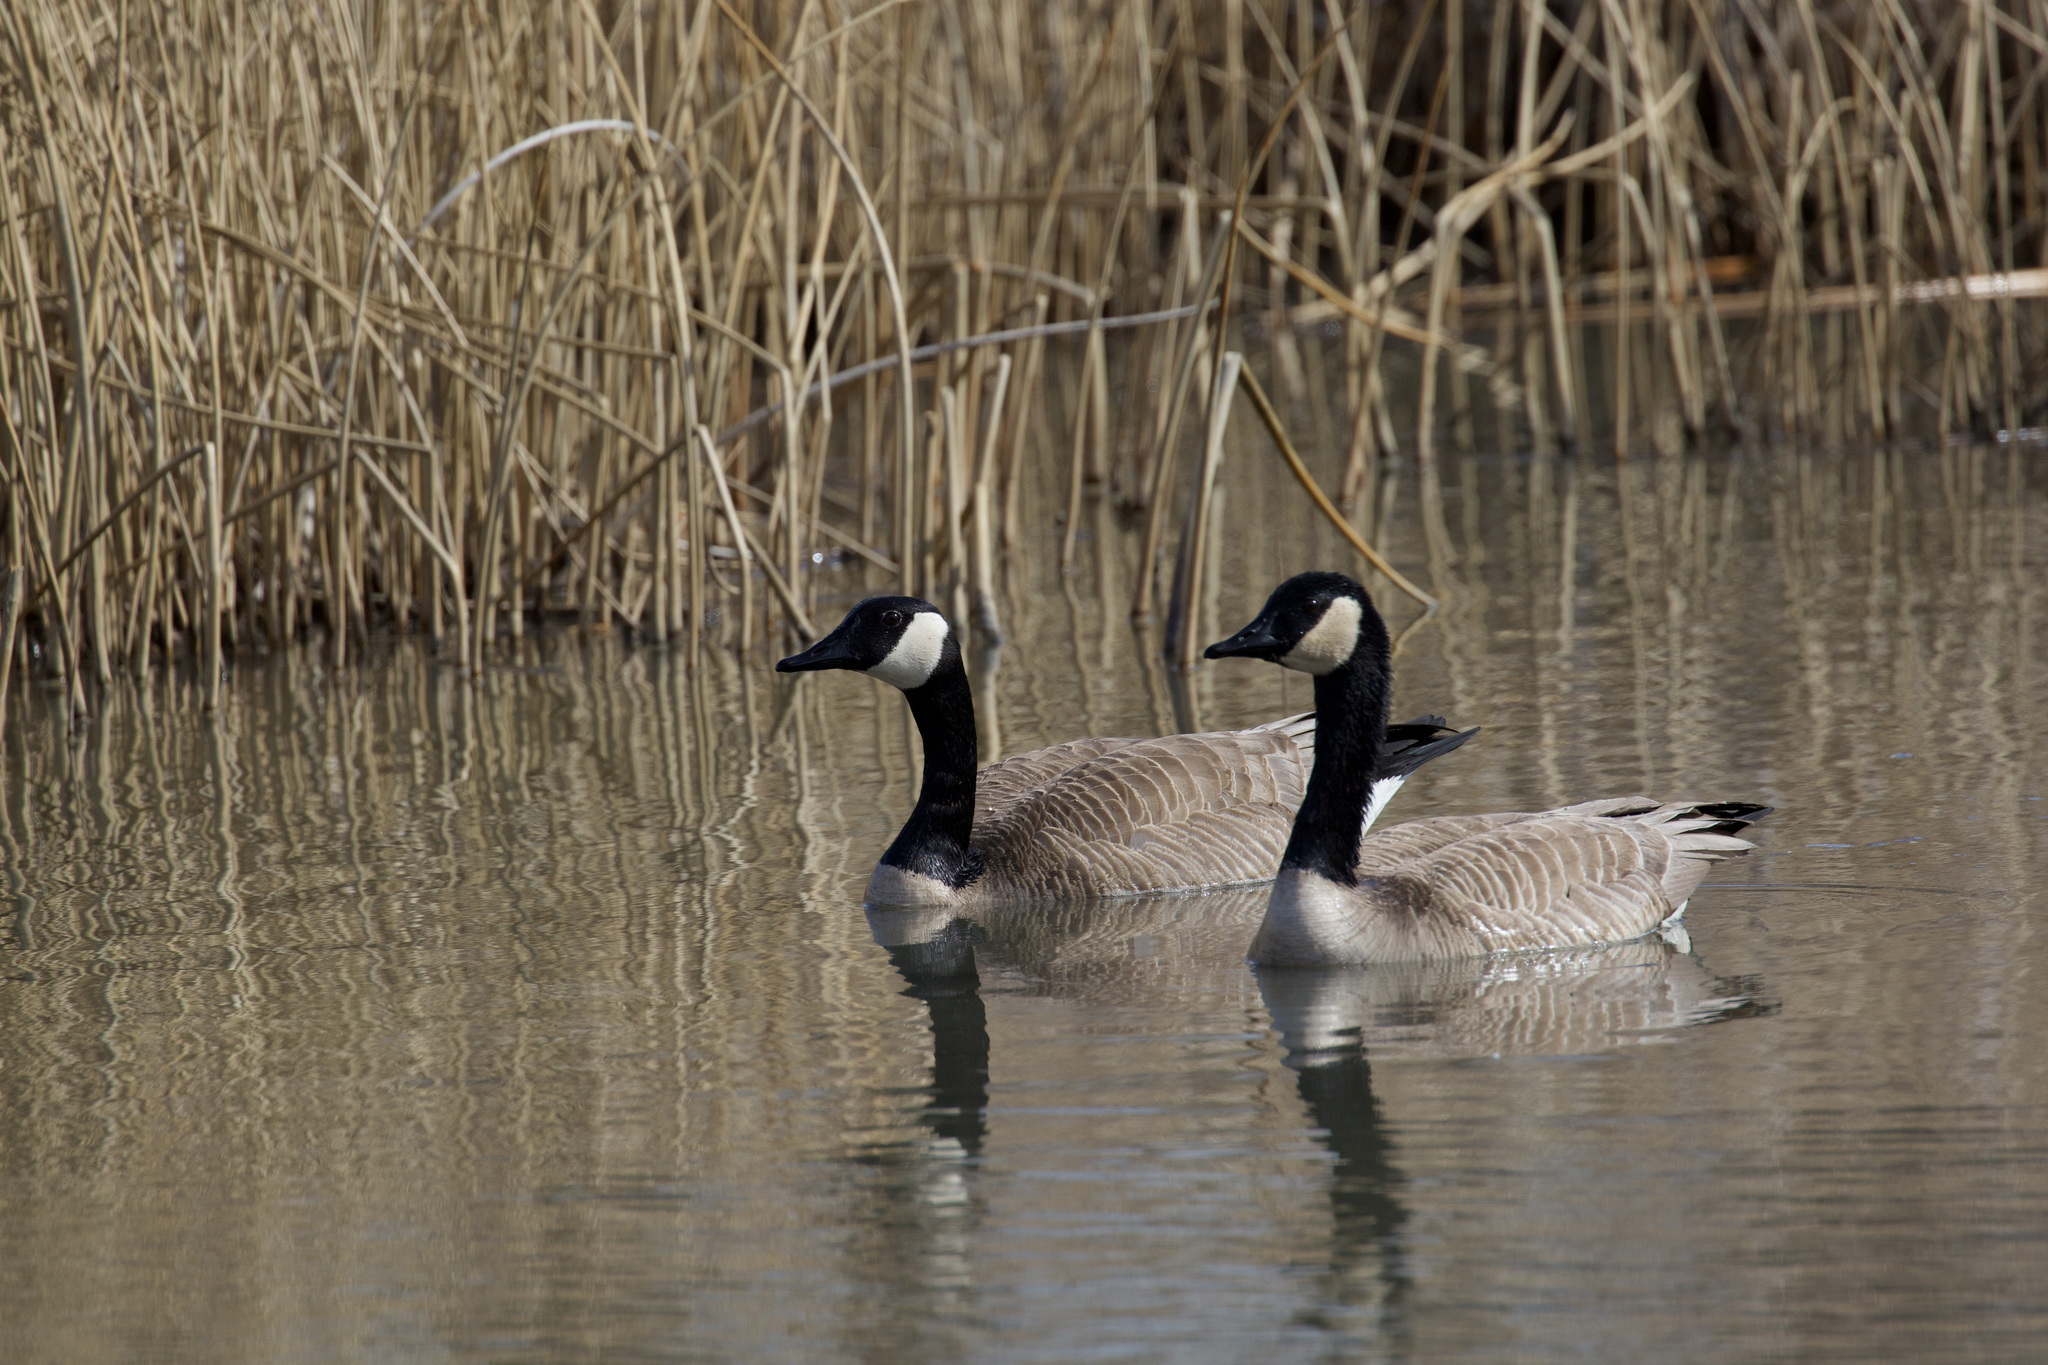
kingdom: Animalia
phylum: Chordata
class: Aves
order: Anseriformes
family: Anatidae
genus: Branta
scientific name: Branta canadensis
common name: Canada goose
